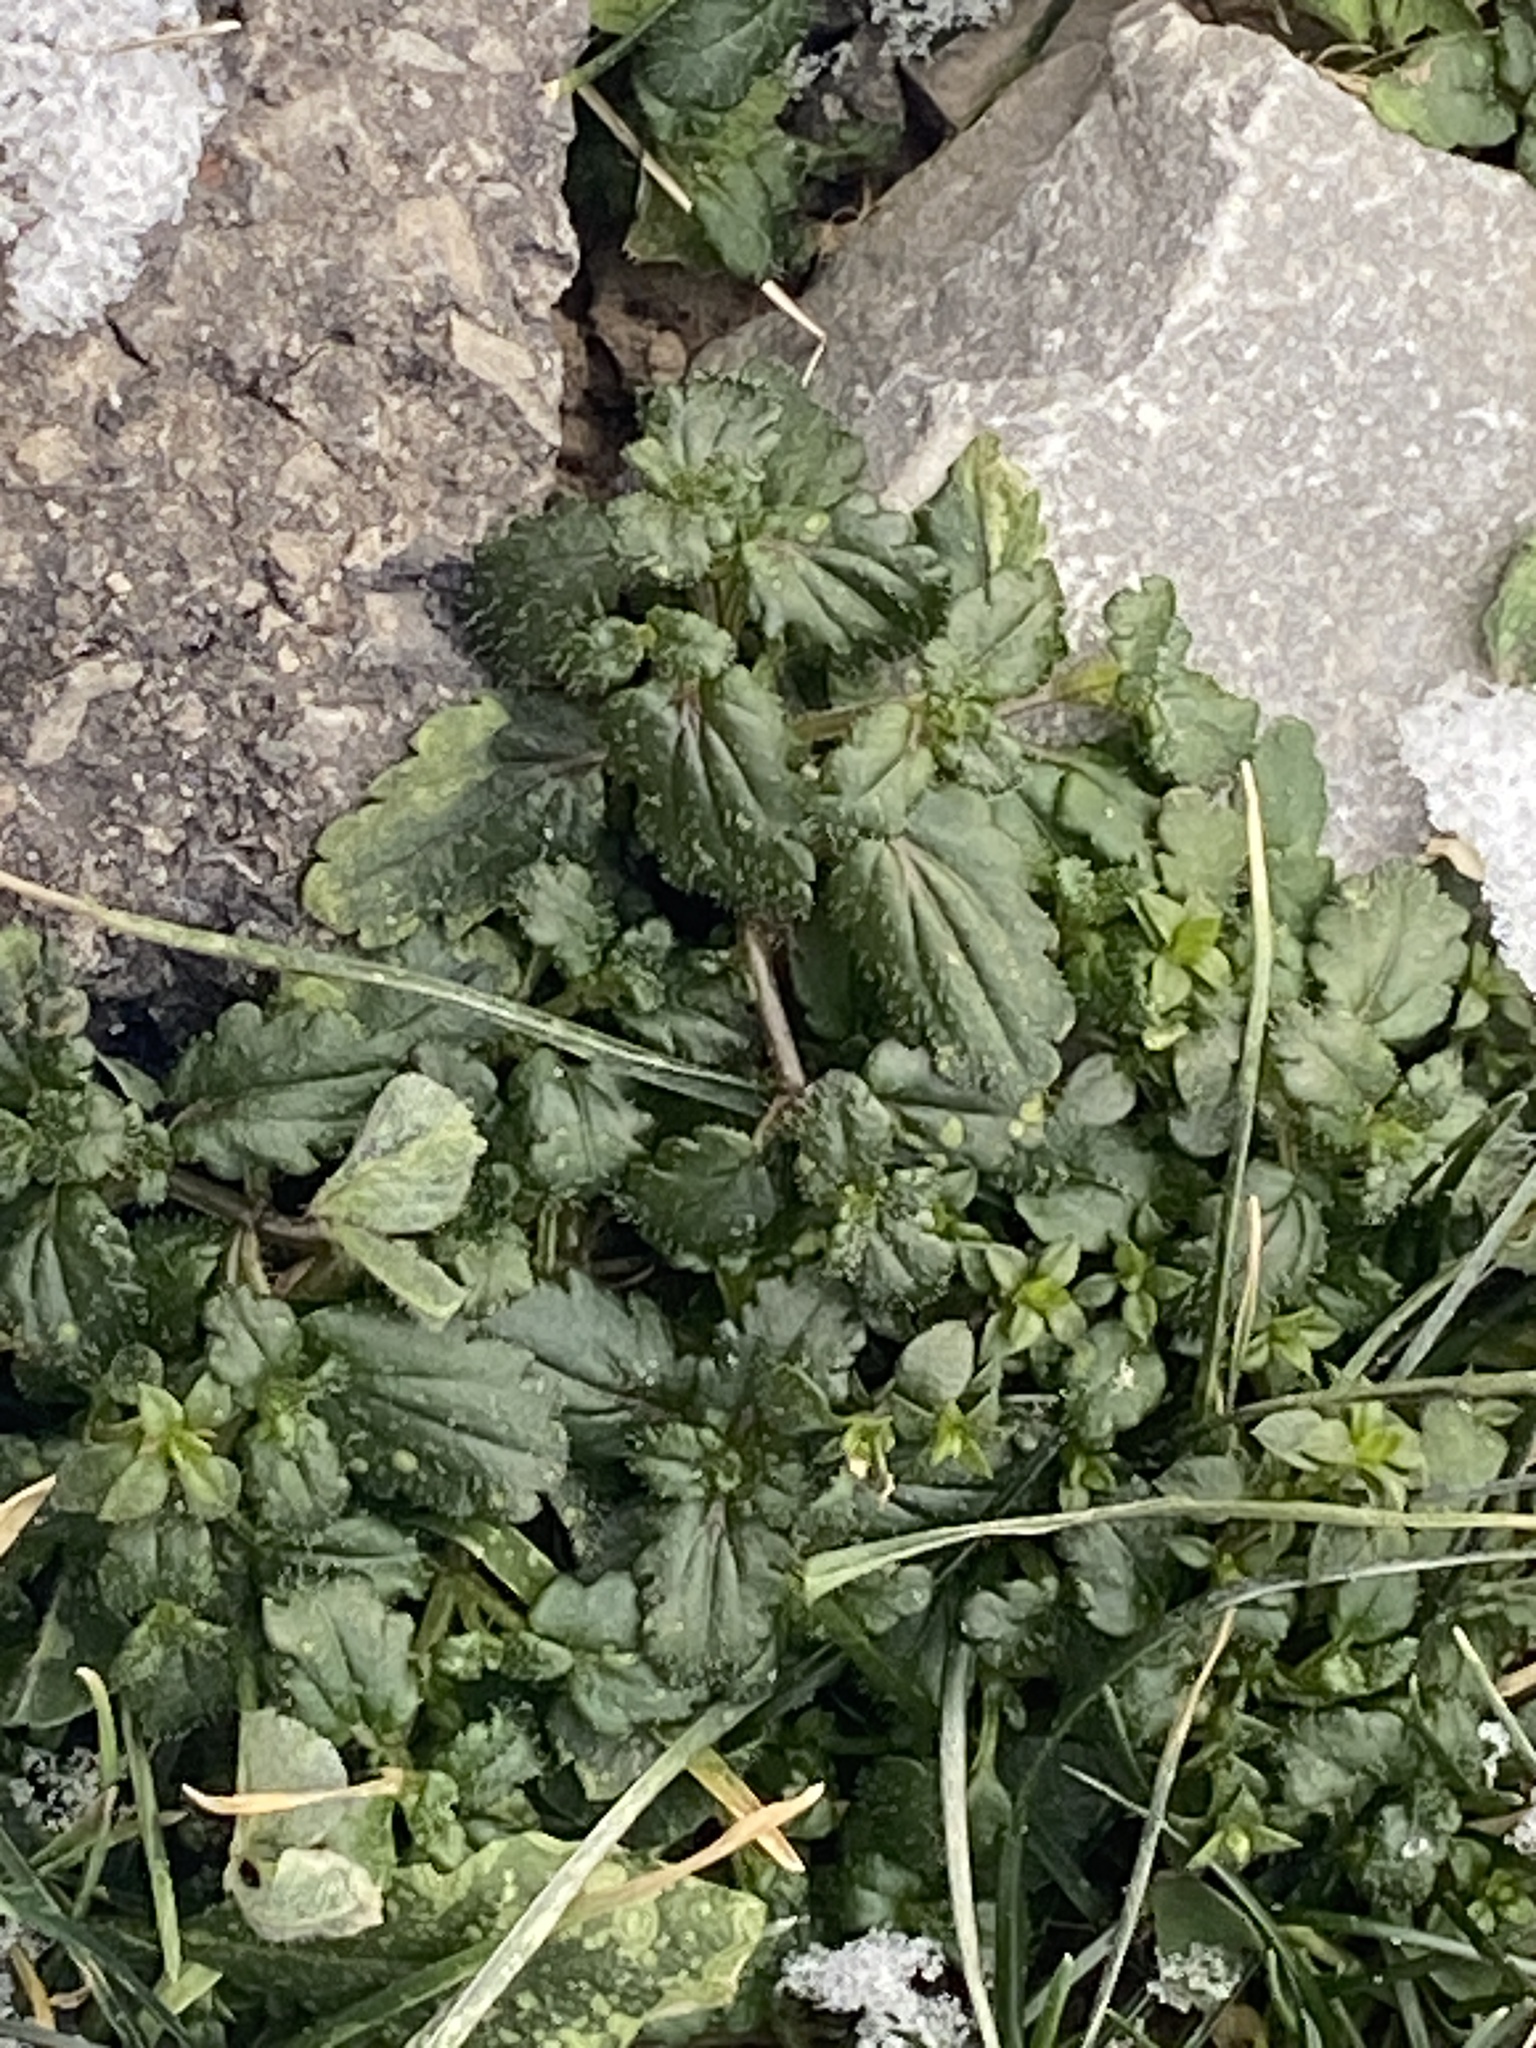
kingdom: Plantae
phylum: Tracheophyta
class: Magnoliopsida
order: Lamiales
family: Plantaginaceae
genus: Veronica
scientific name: Veronica persica
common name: Common field-speedwell
